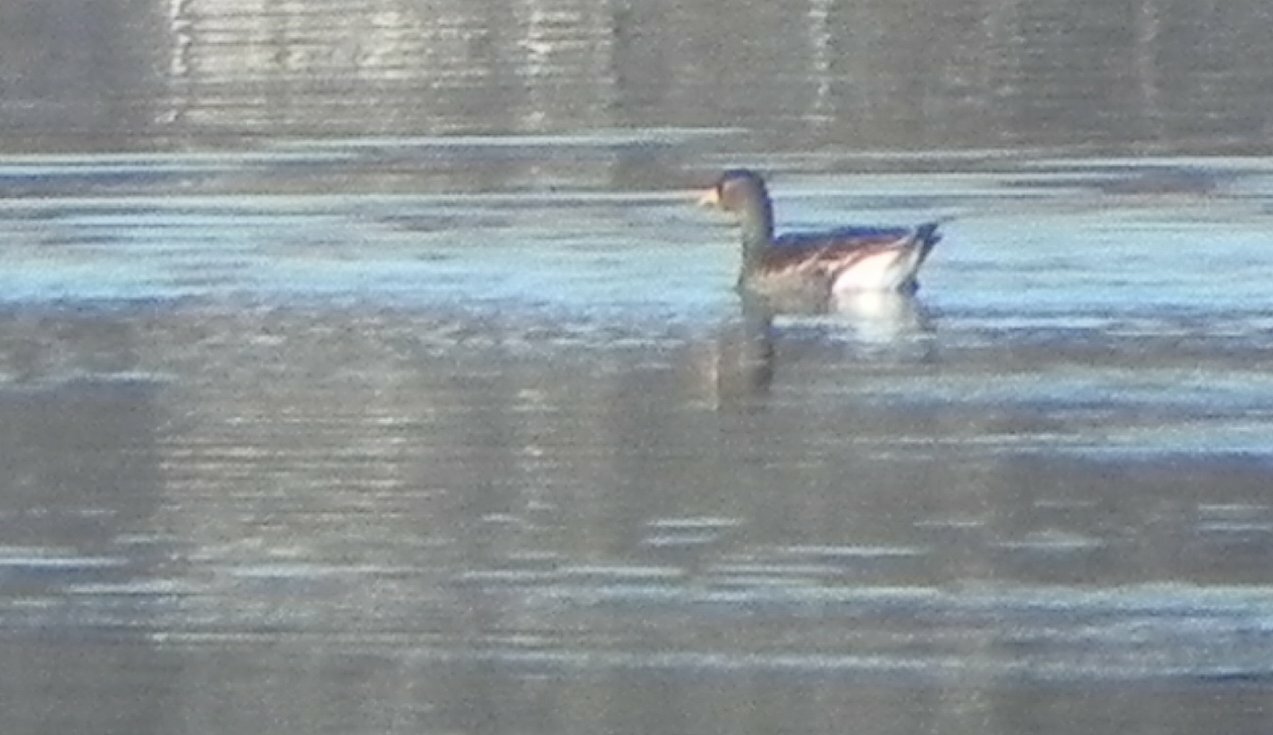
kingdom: Animalia
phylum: Chordata
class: Aves
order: Anseriformes
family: Anatidae
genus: Anser
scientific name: Anser albifrons
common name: Greater white-fronted goose
